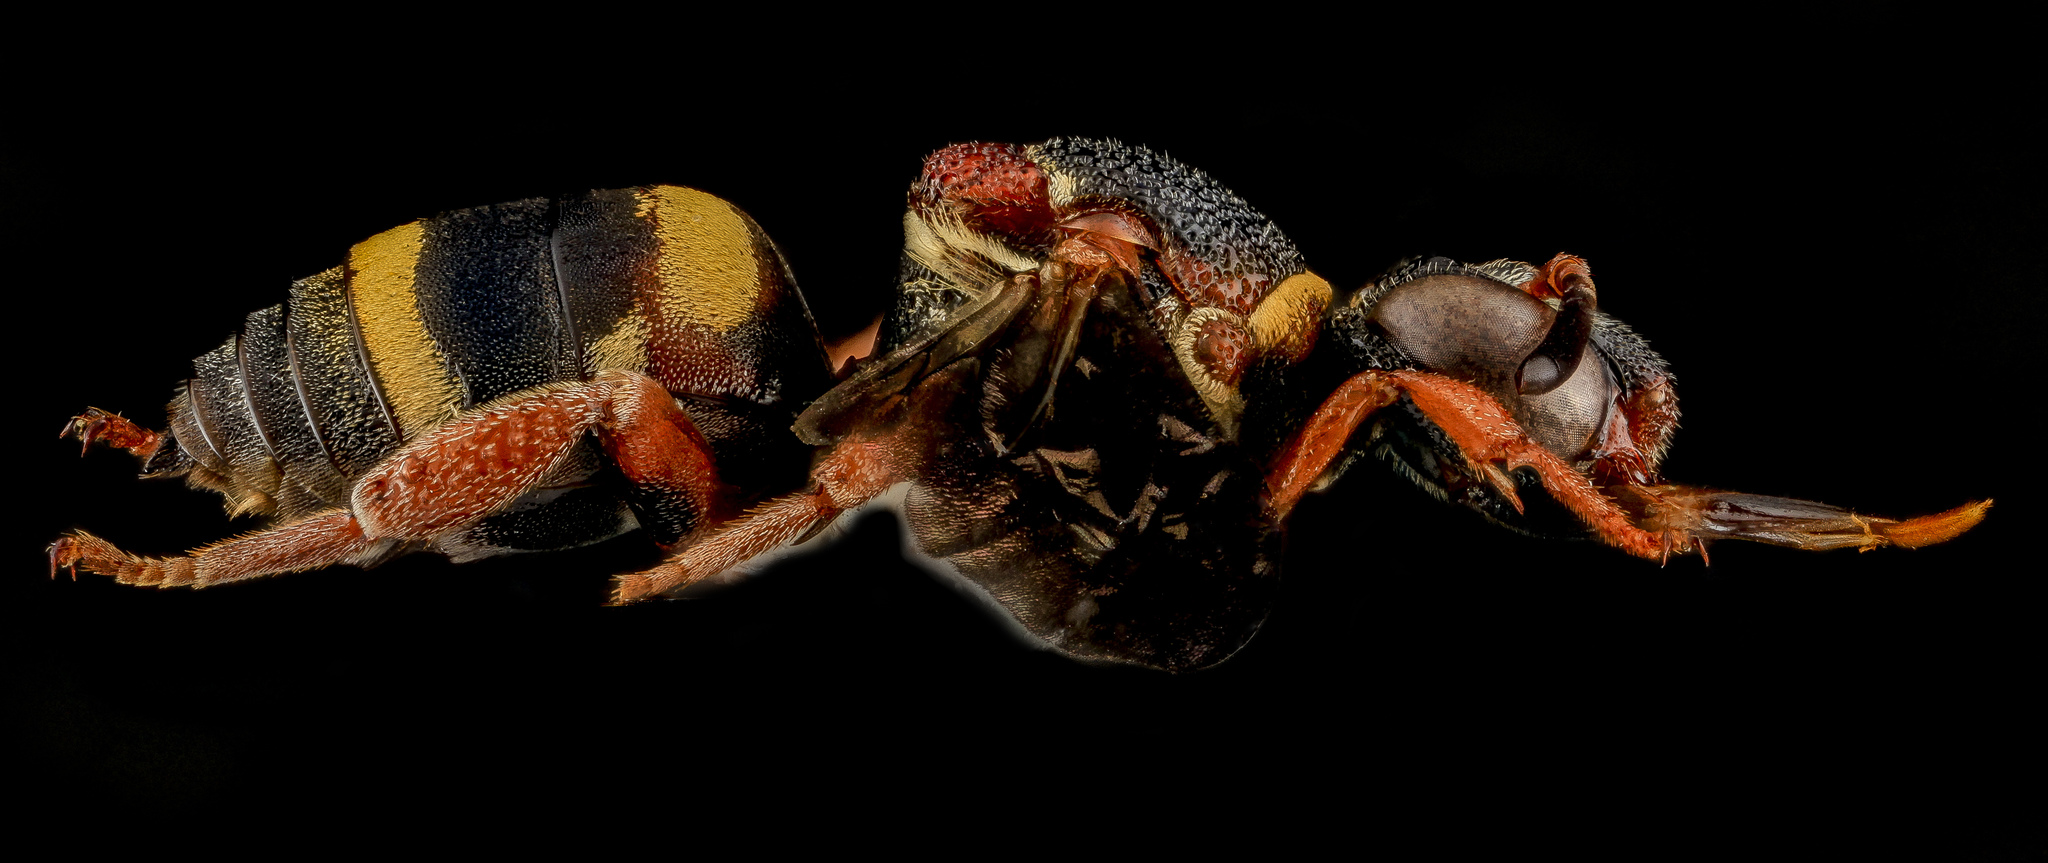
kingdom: Animalia
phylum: Arthropoda
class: Insecta
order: Hymenoptera
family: Apidae
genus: Epeolus
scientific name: Epeolus bifasciatus
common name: Two-banded cellophane-cuckoo
